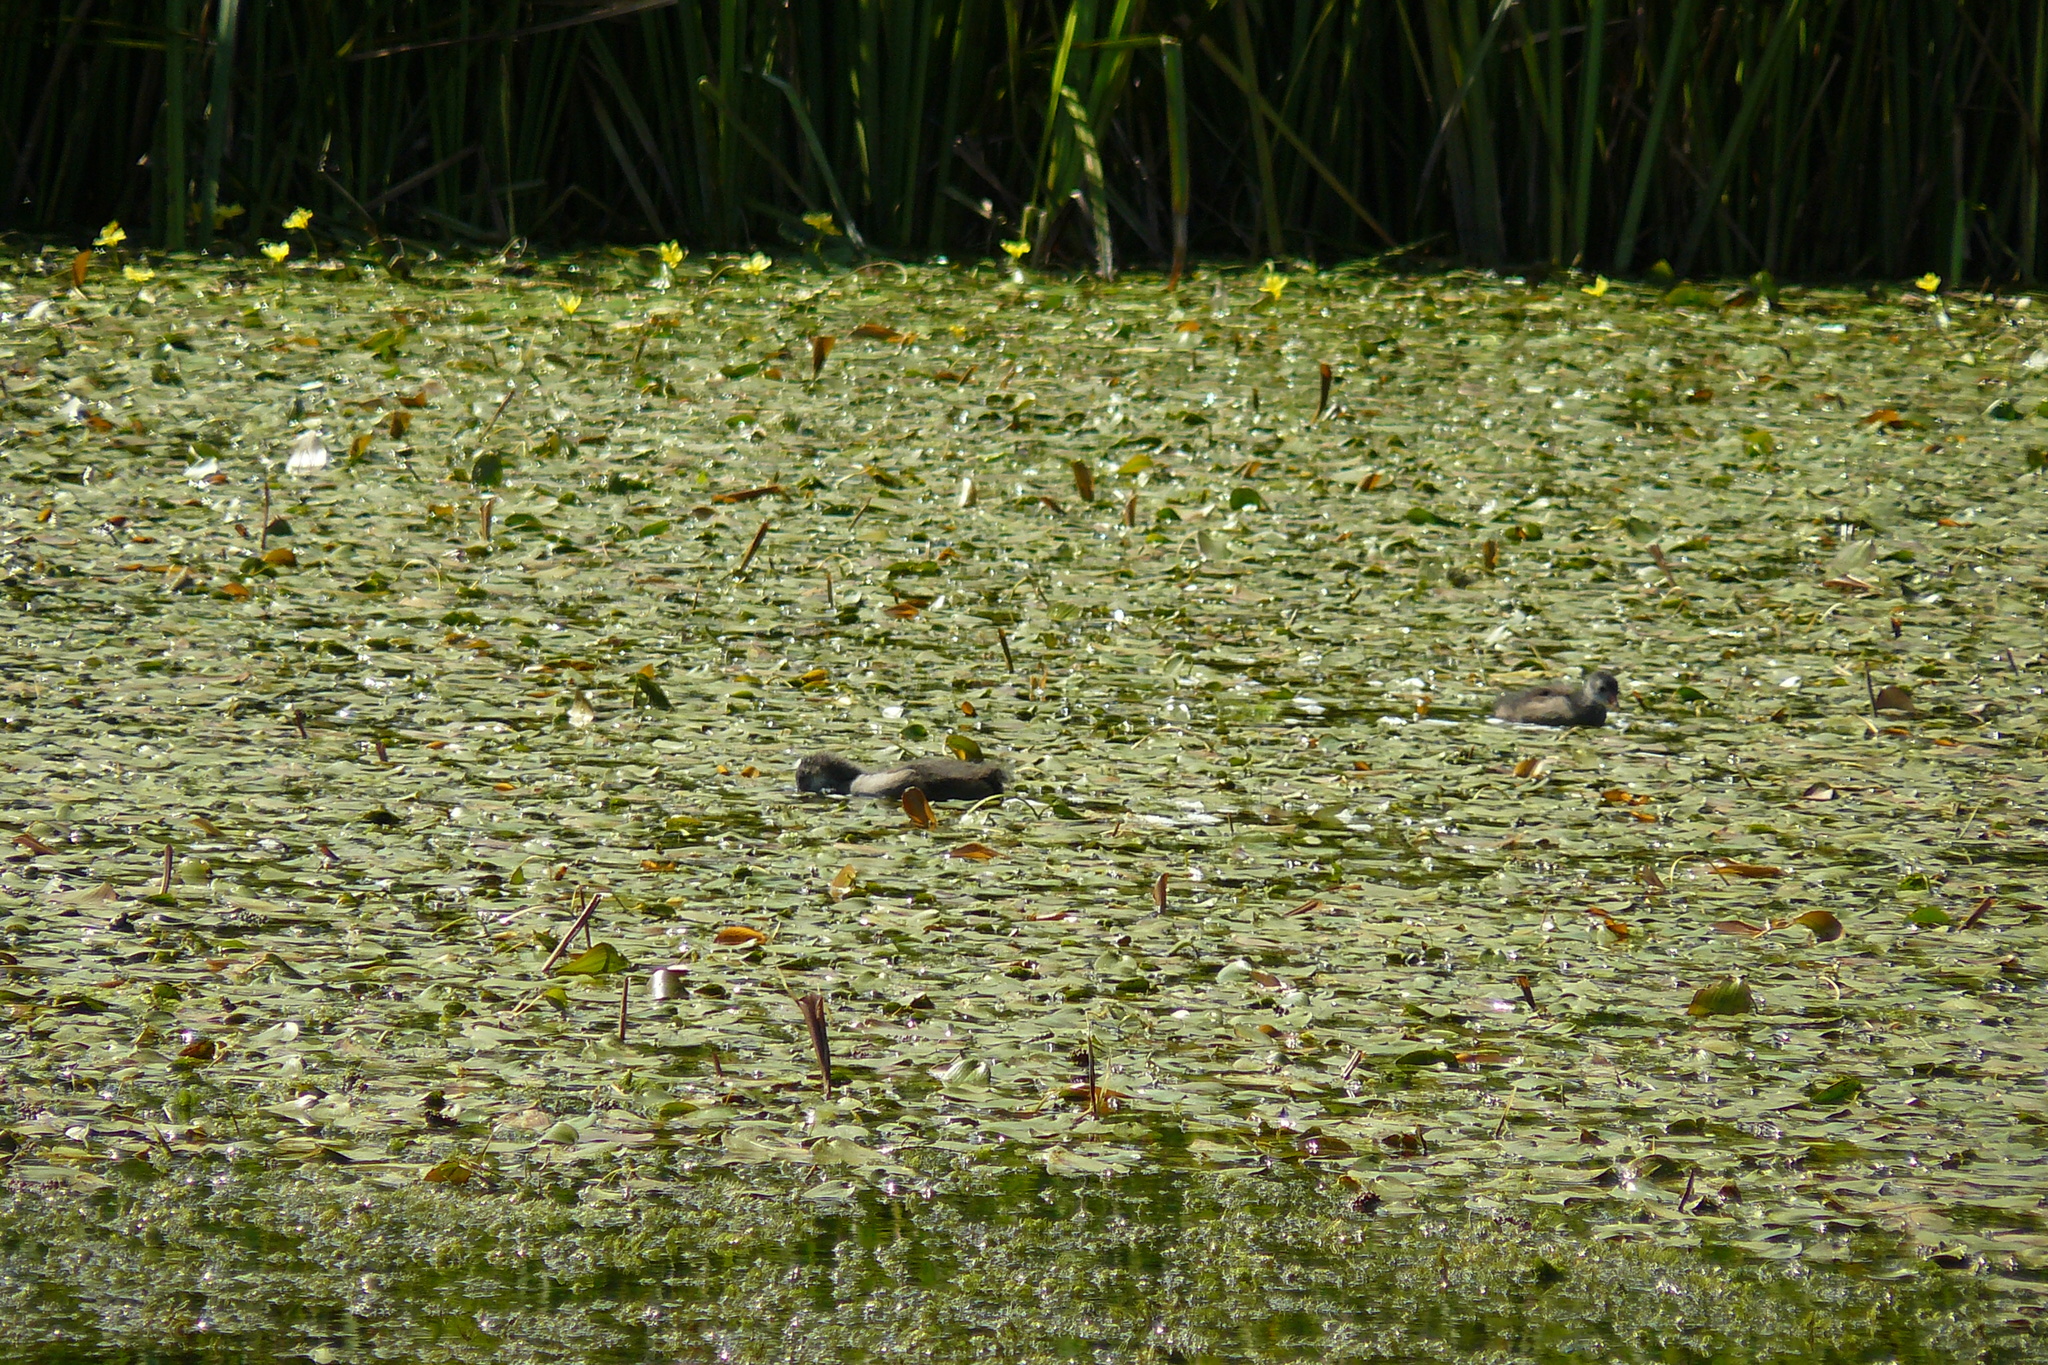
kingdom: Animalia
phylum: Chordata
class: Aves
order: Gruiformes
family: Rallidae
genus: Fulica
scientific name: Fulica atra
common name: Eurasian coot
